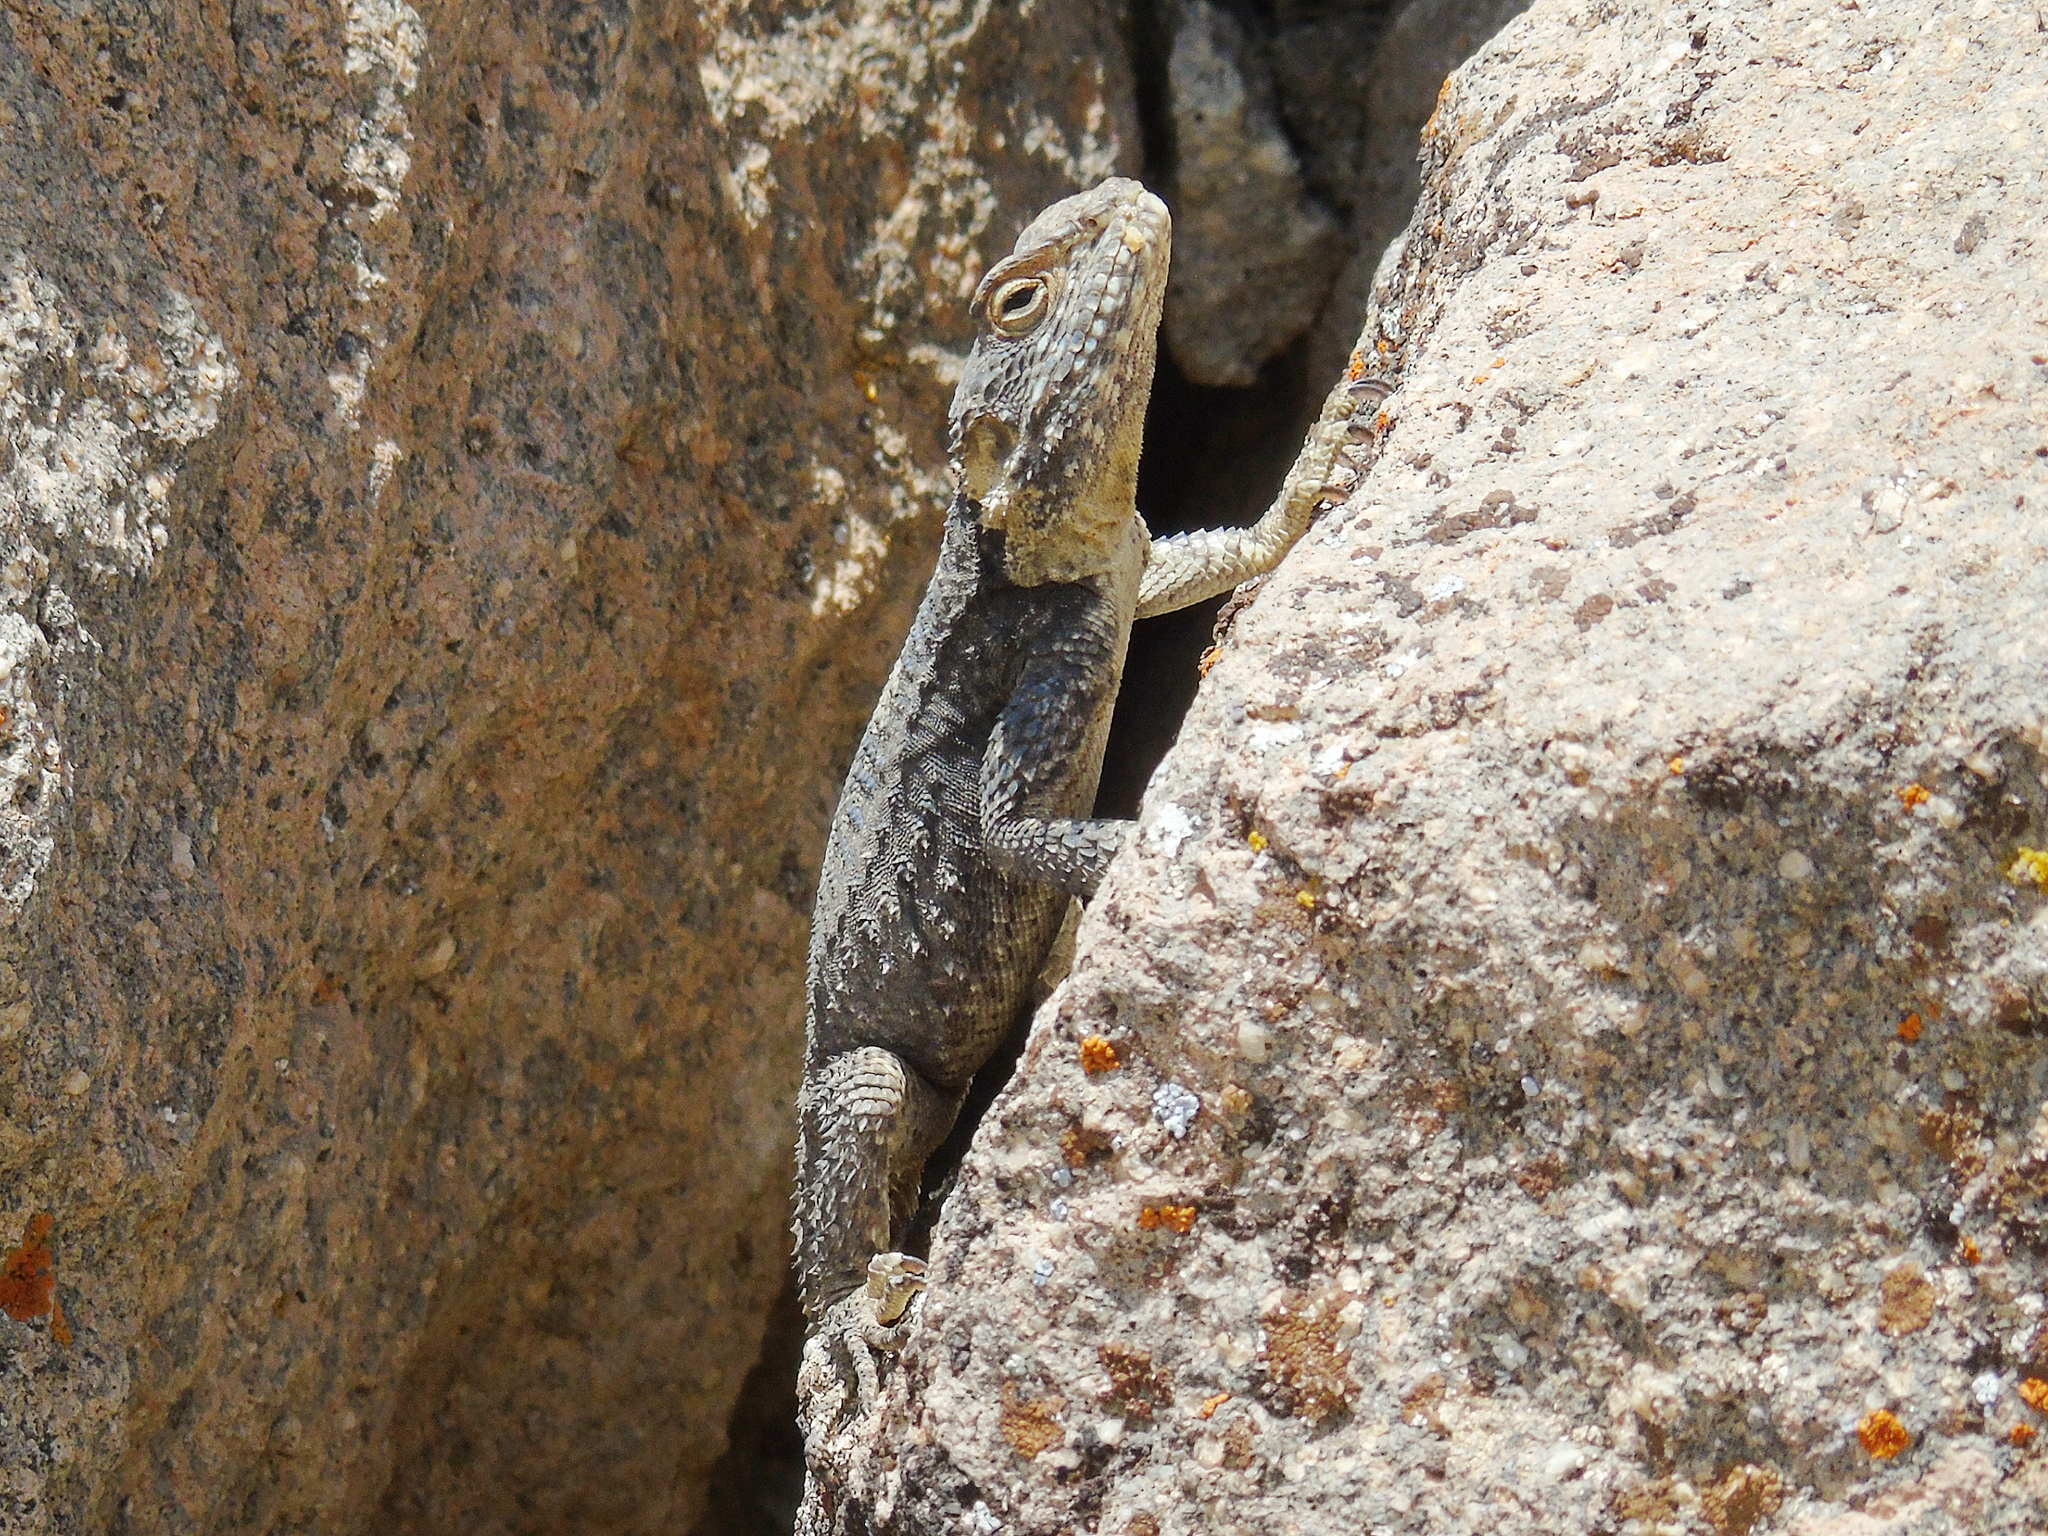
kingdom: Animalia
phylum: Chordata
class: Squamata
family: Agamidae
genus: Stellagama
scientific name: Stellagama stellio
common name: Starred agama
